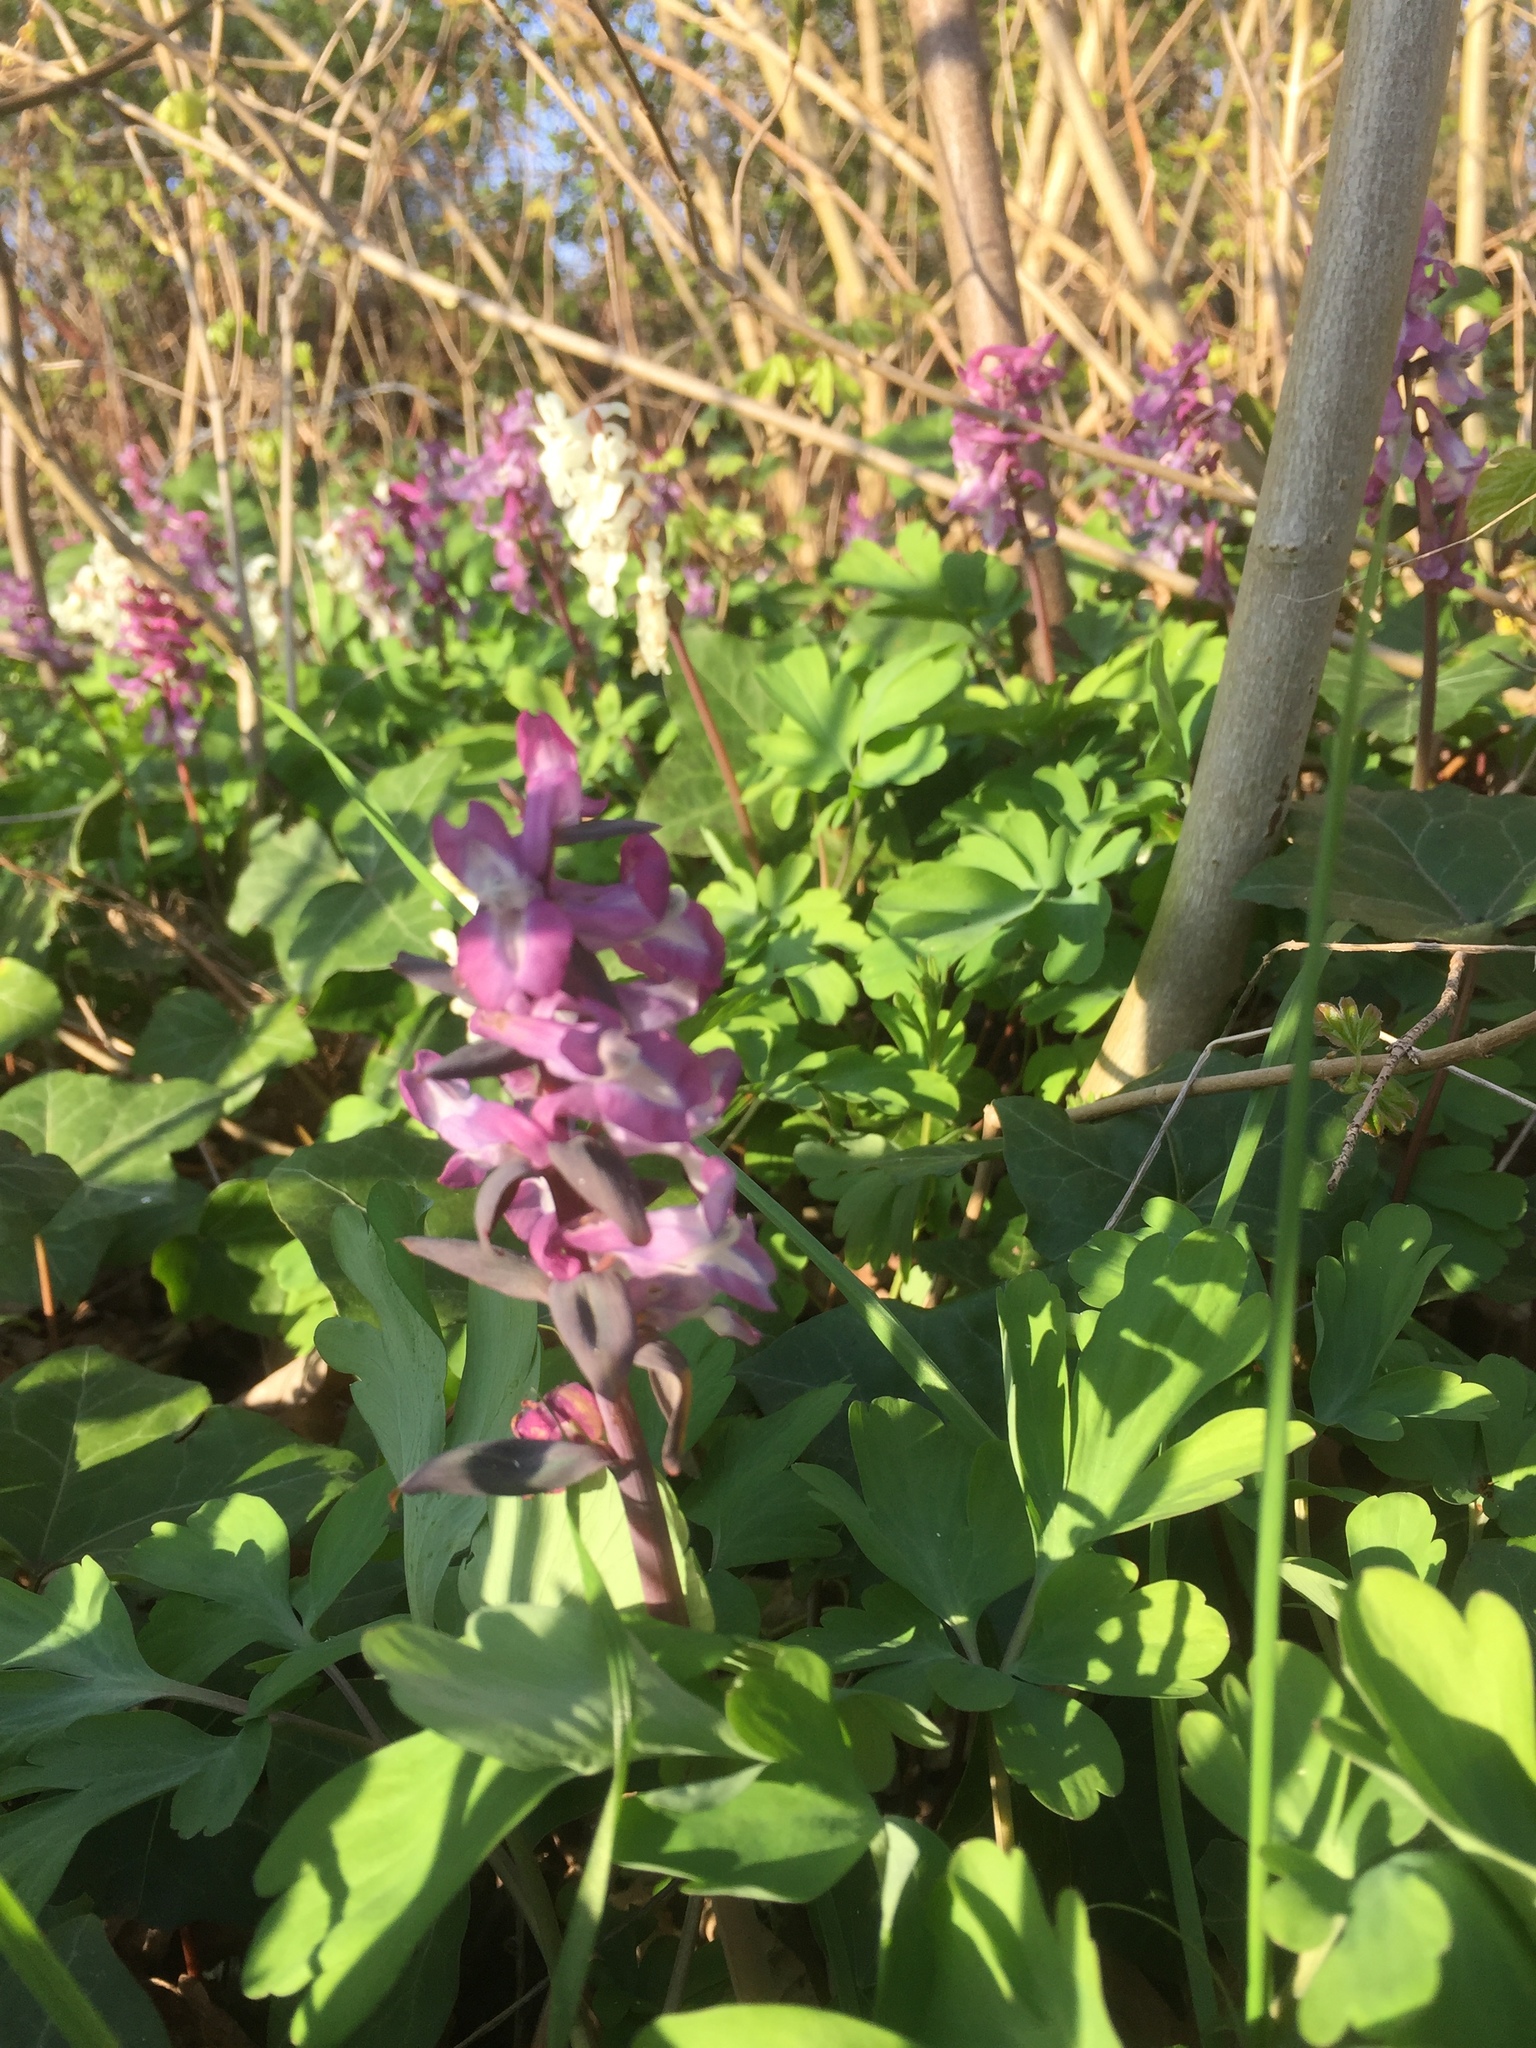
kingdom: Plantae
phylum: Tracheophyta
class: Magnoliopsida
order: Ranunculales
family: Papaveraceae
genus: Corydalis
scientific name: Corydalis cava
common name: Hollowroot
